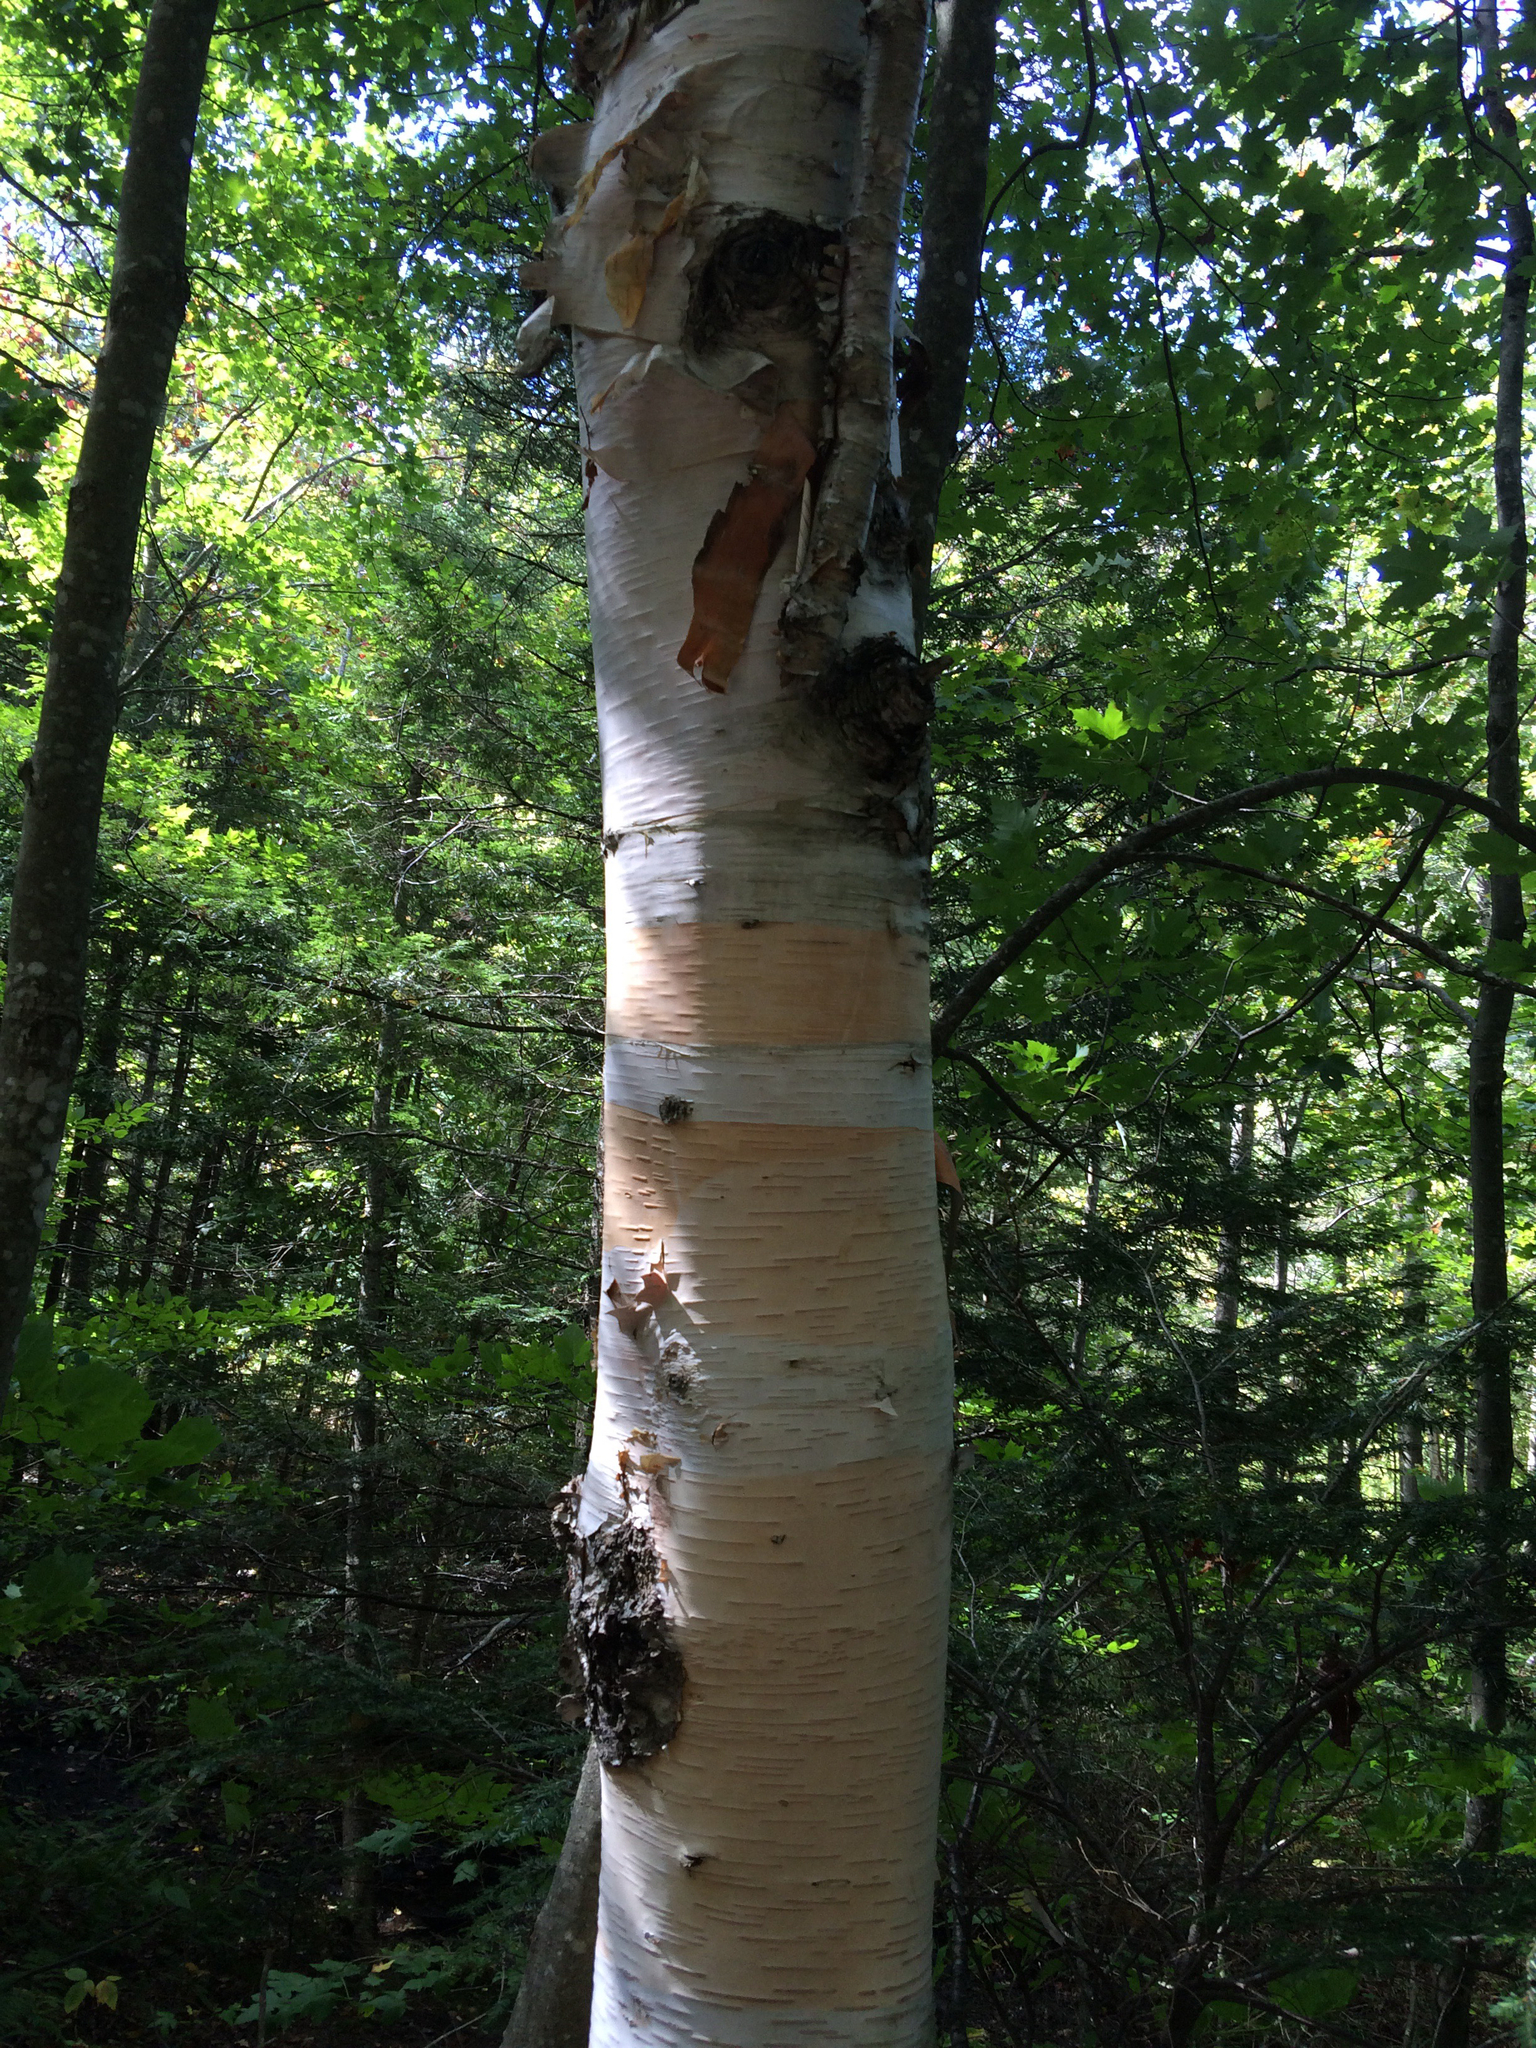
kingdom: Plantae
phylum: Tracheophyta
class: Magnoliopsida
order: Fagales
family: Betulaceae
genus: Betula
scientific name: Betula cordifolia
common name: Mountain white birch
